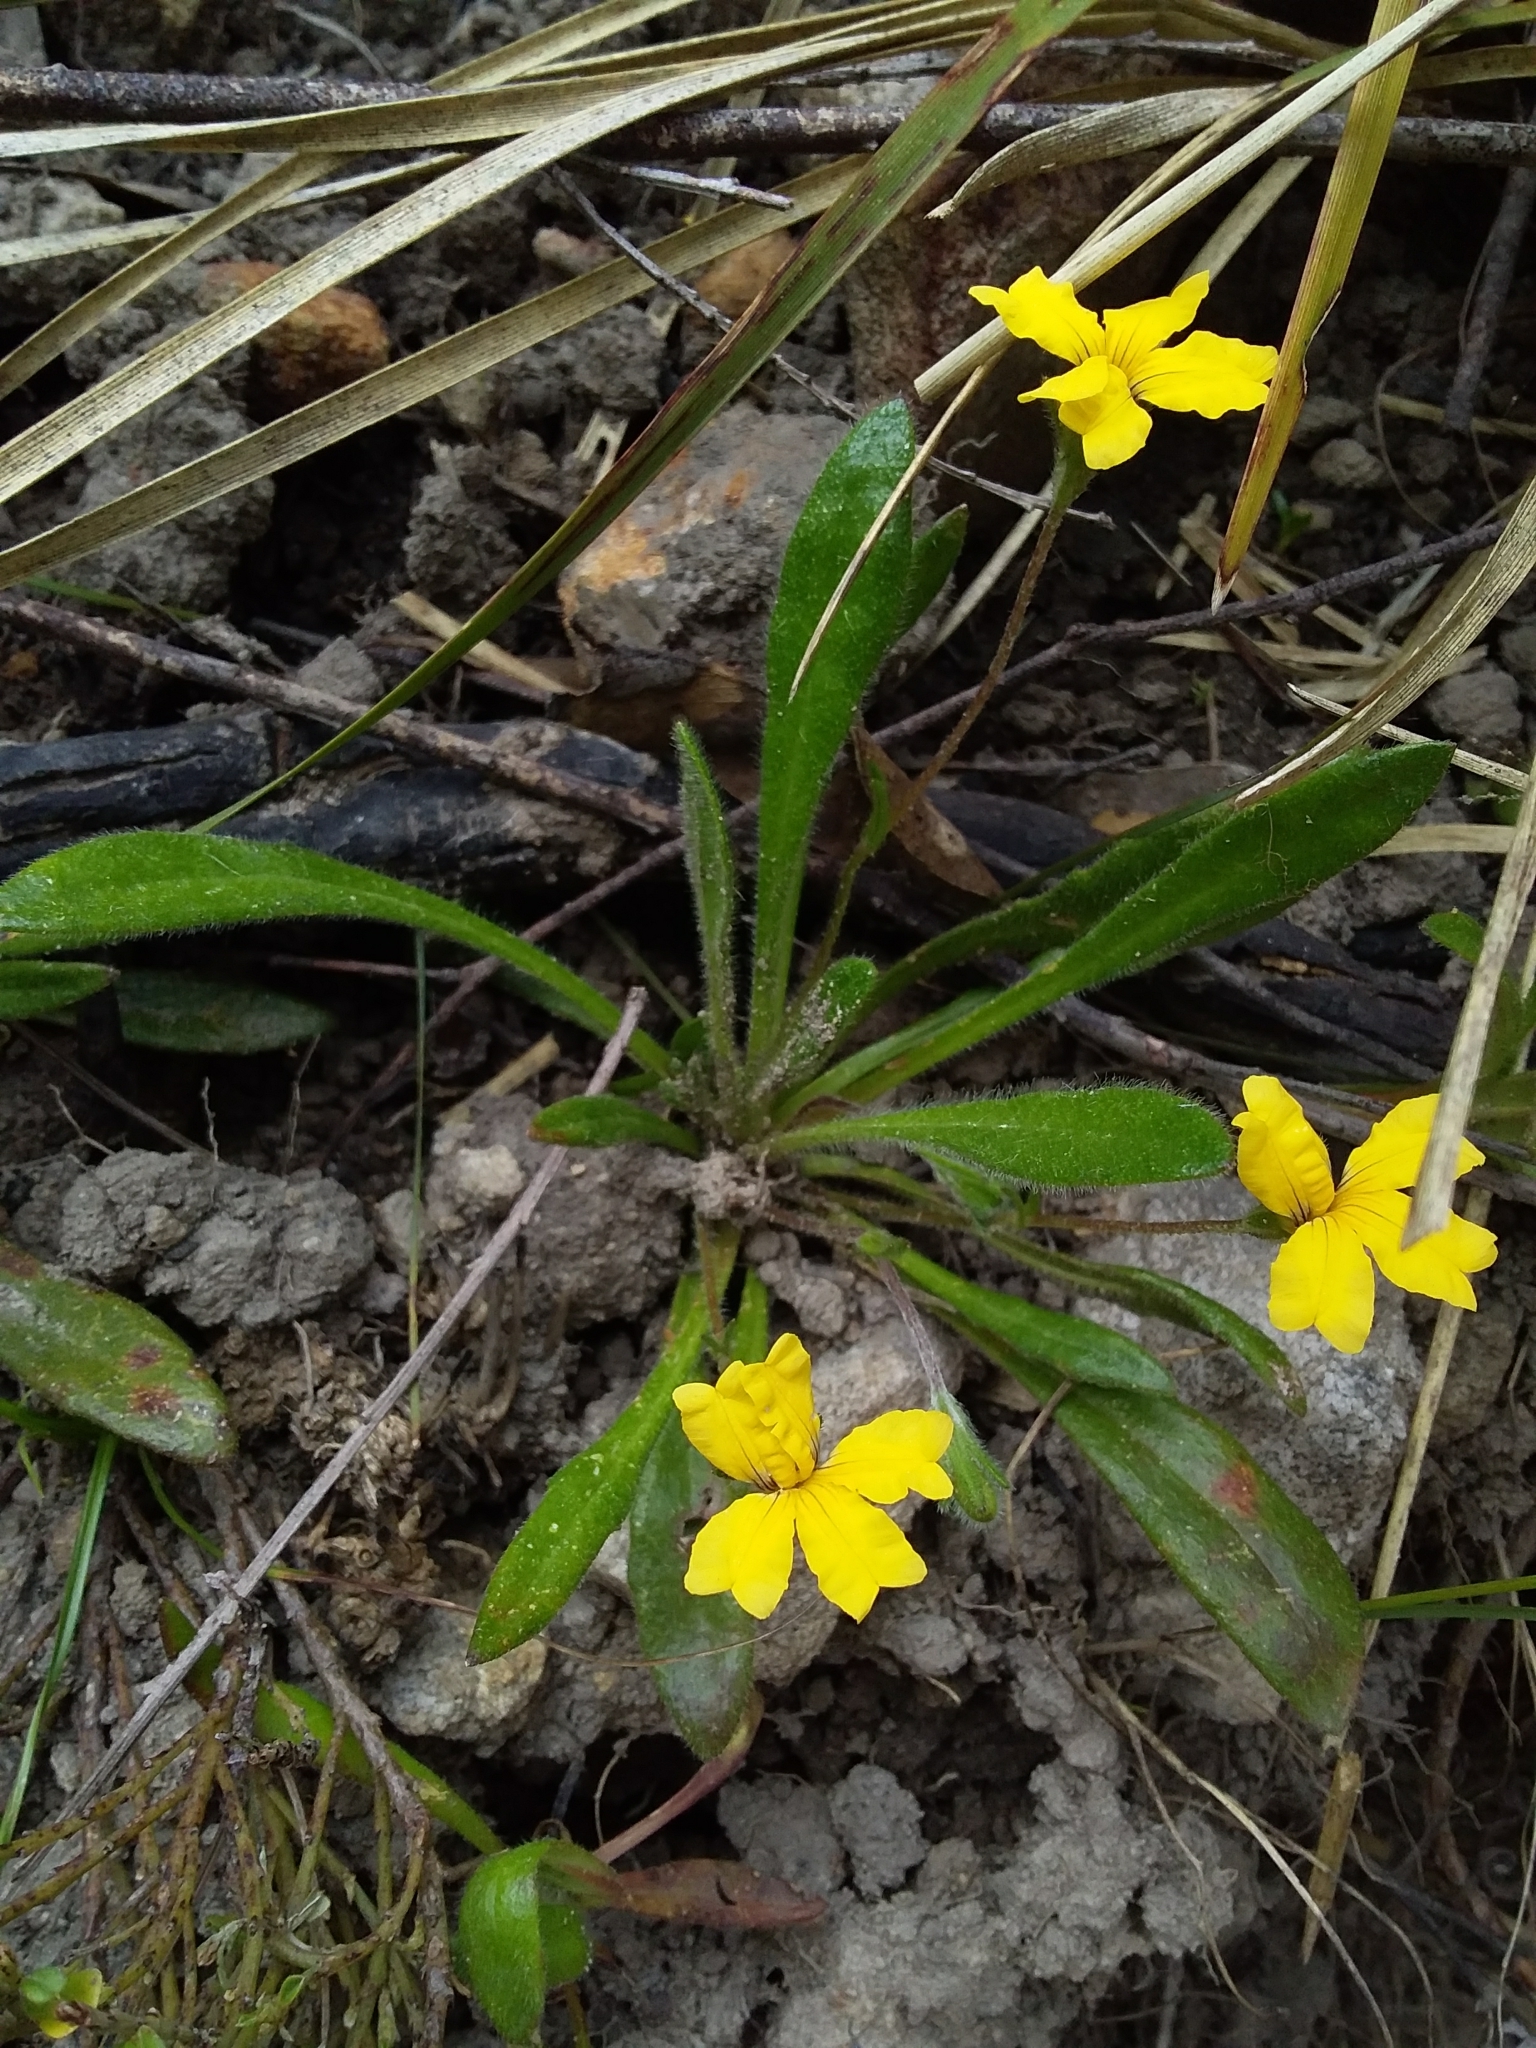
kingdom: Plantae
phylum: Tracheophyta
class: Magnoliopsida
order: Asterales
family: Goodeniaceae
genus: Goodenia
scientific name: Goodenia geniculata
